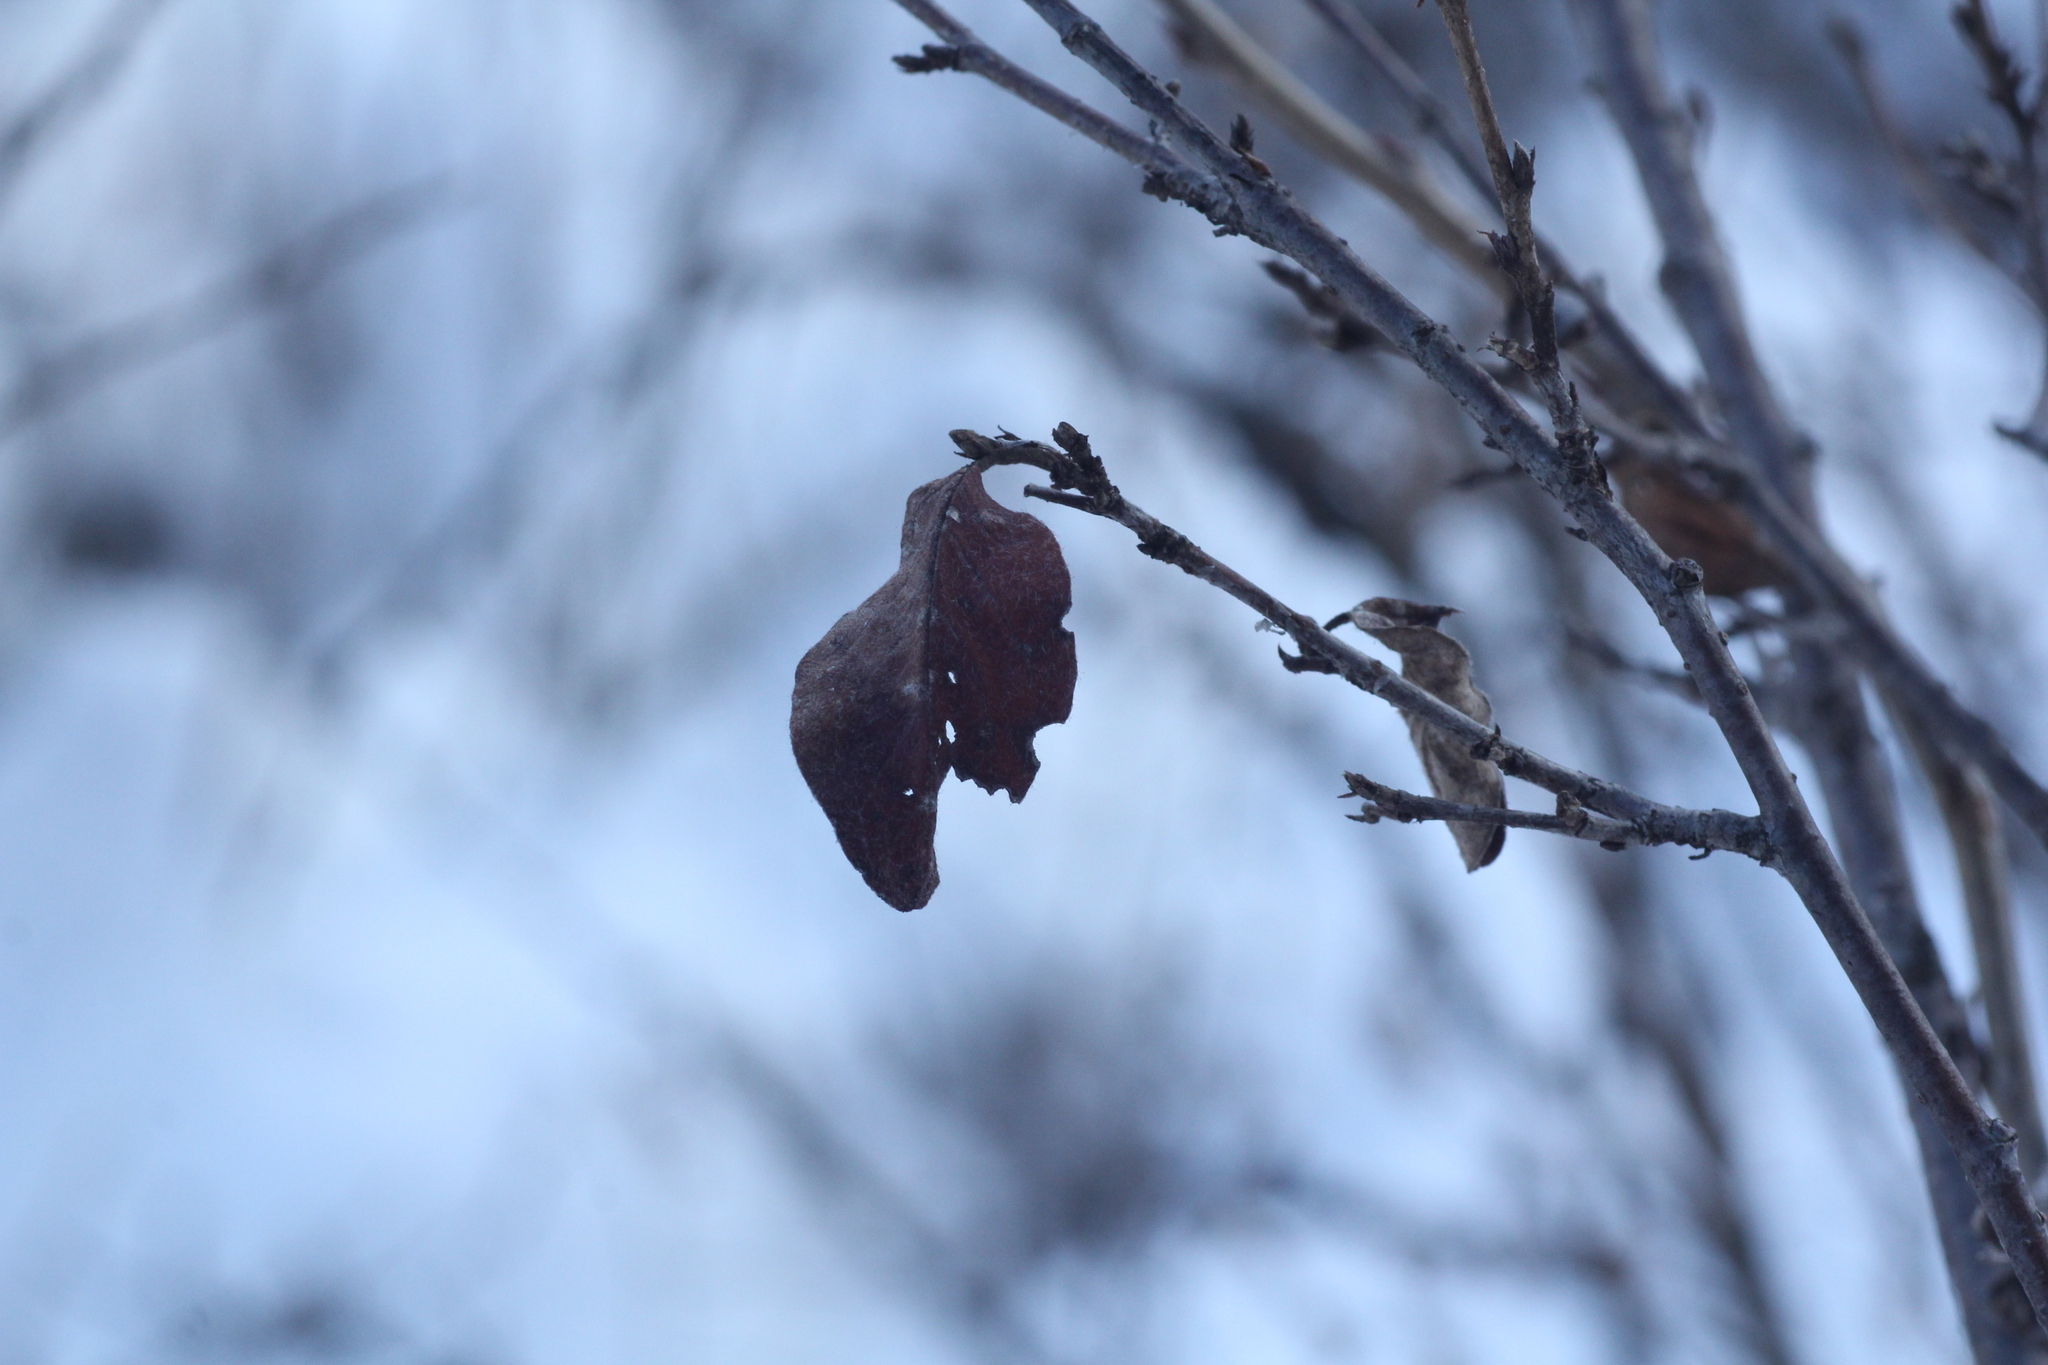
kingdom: Plantae
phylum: Tracheophyta
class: Magnoliopsida
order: Rosales
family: Rosaceae
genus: Cotoneaster
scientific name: Cotoneaster melanocarpus
